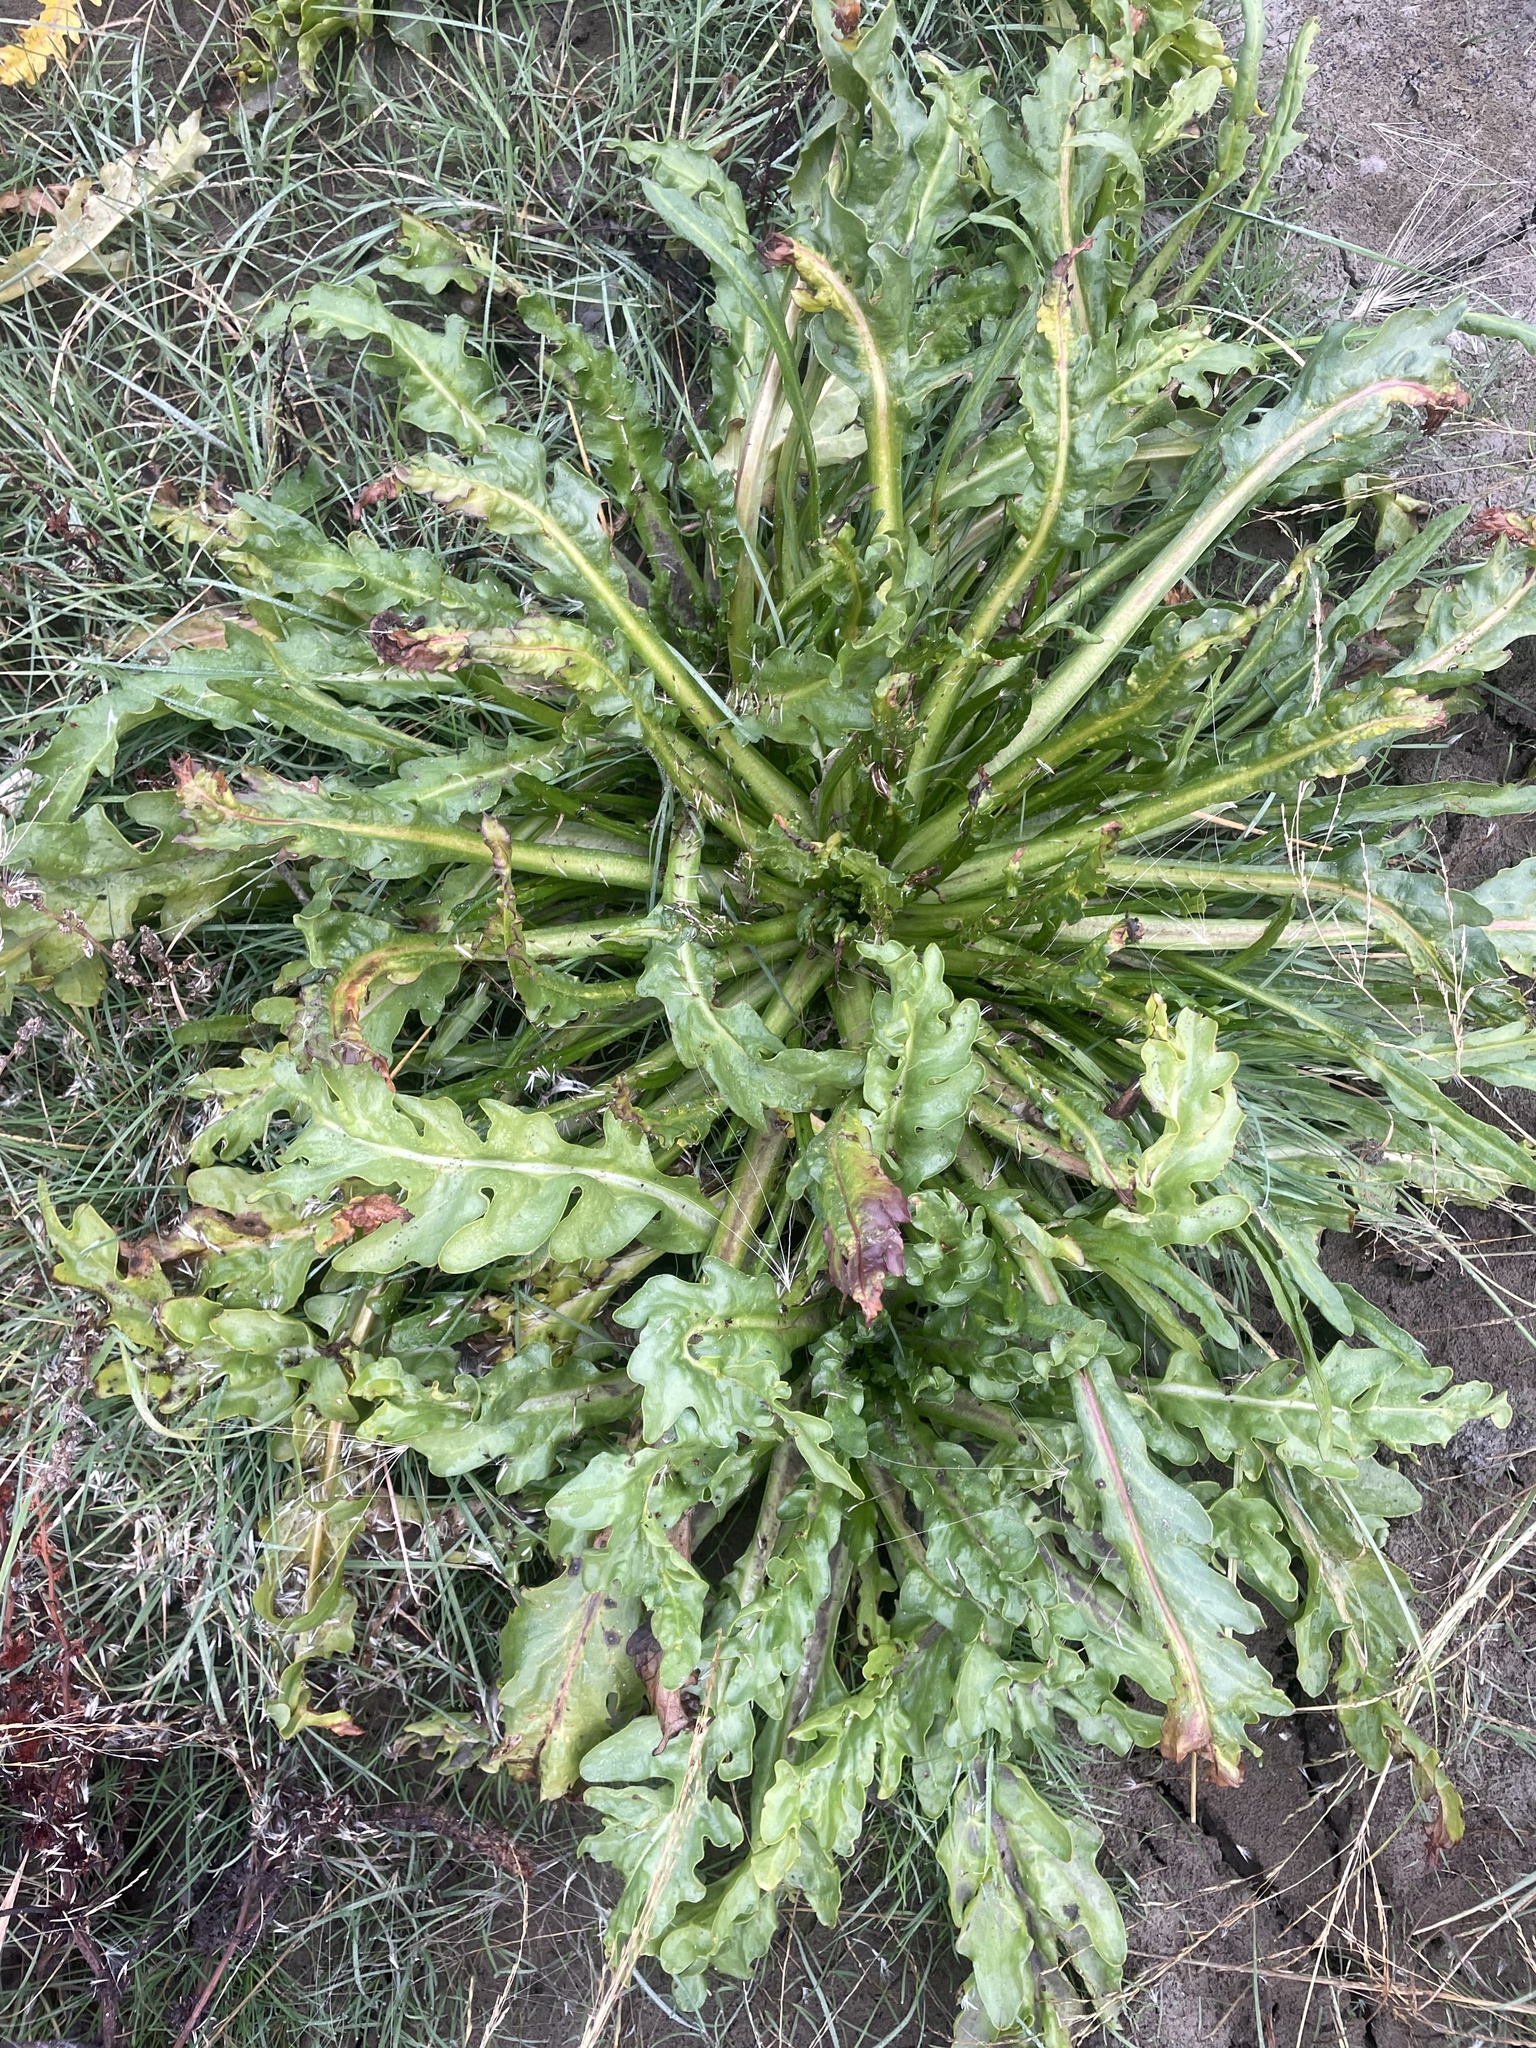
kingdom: Plantae
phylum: Tracheophyta
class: Magnoliopsida
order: Asterales
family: Asteraceae
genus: Tephroseris
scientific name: Tephroseris palustris
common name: Marsh fleawort
